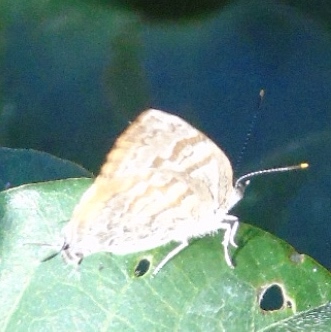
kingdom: Animalia
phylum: Arthropoda
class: Insecta
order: Lepidoptera
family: Lycaenidae
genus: Rekoa
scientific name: Rekoa palegon
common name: Gold-bordered hairstreak
